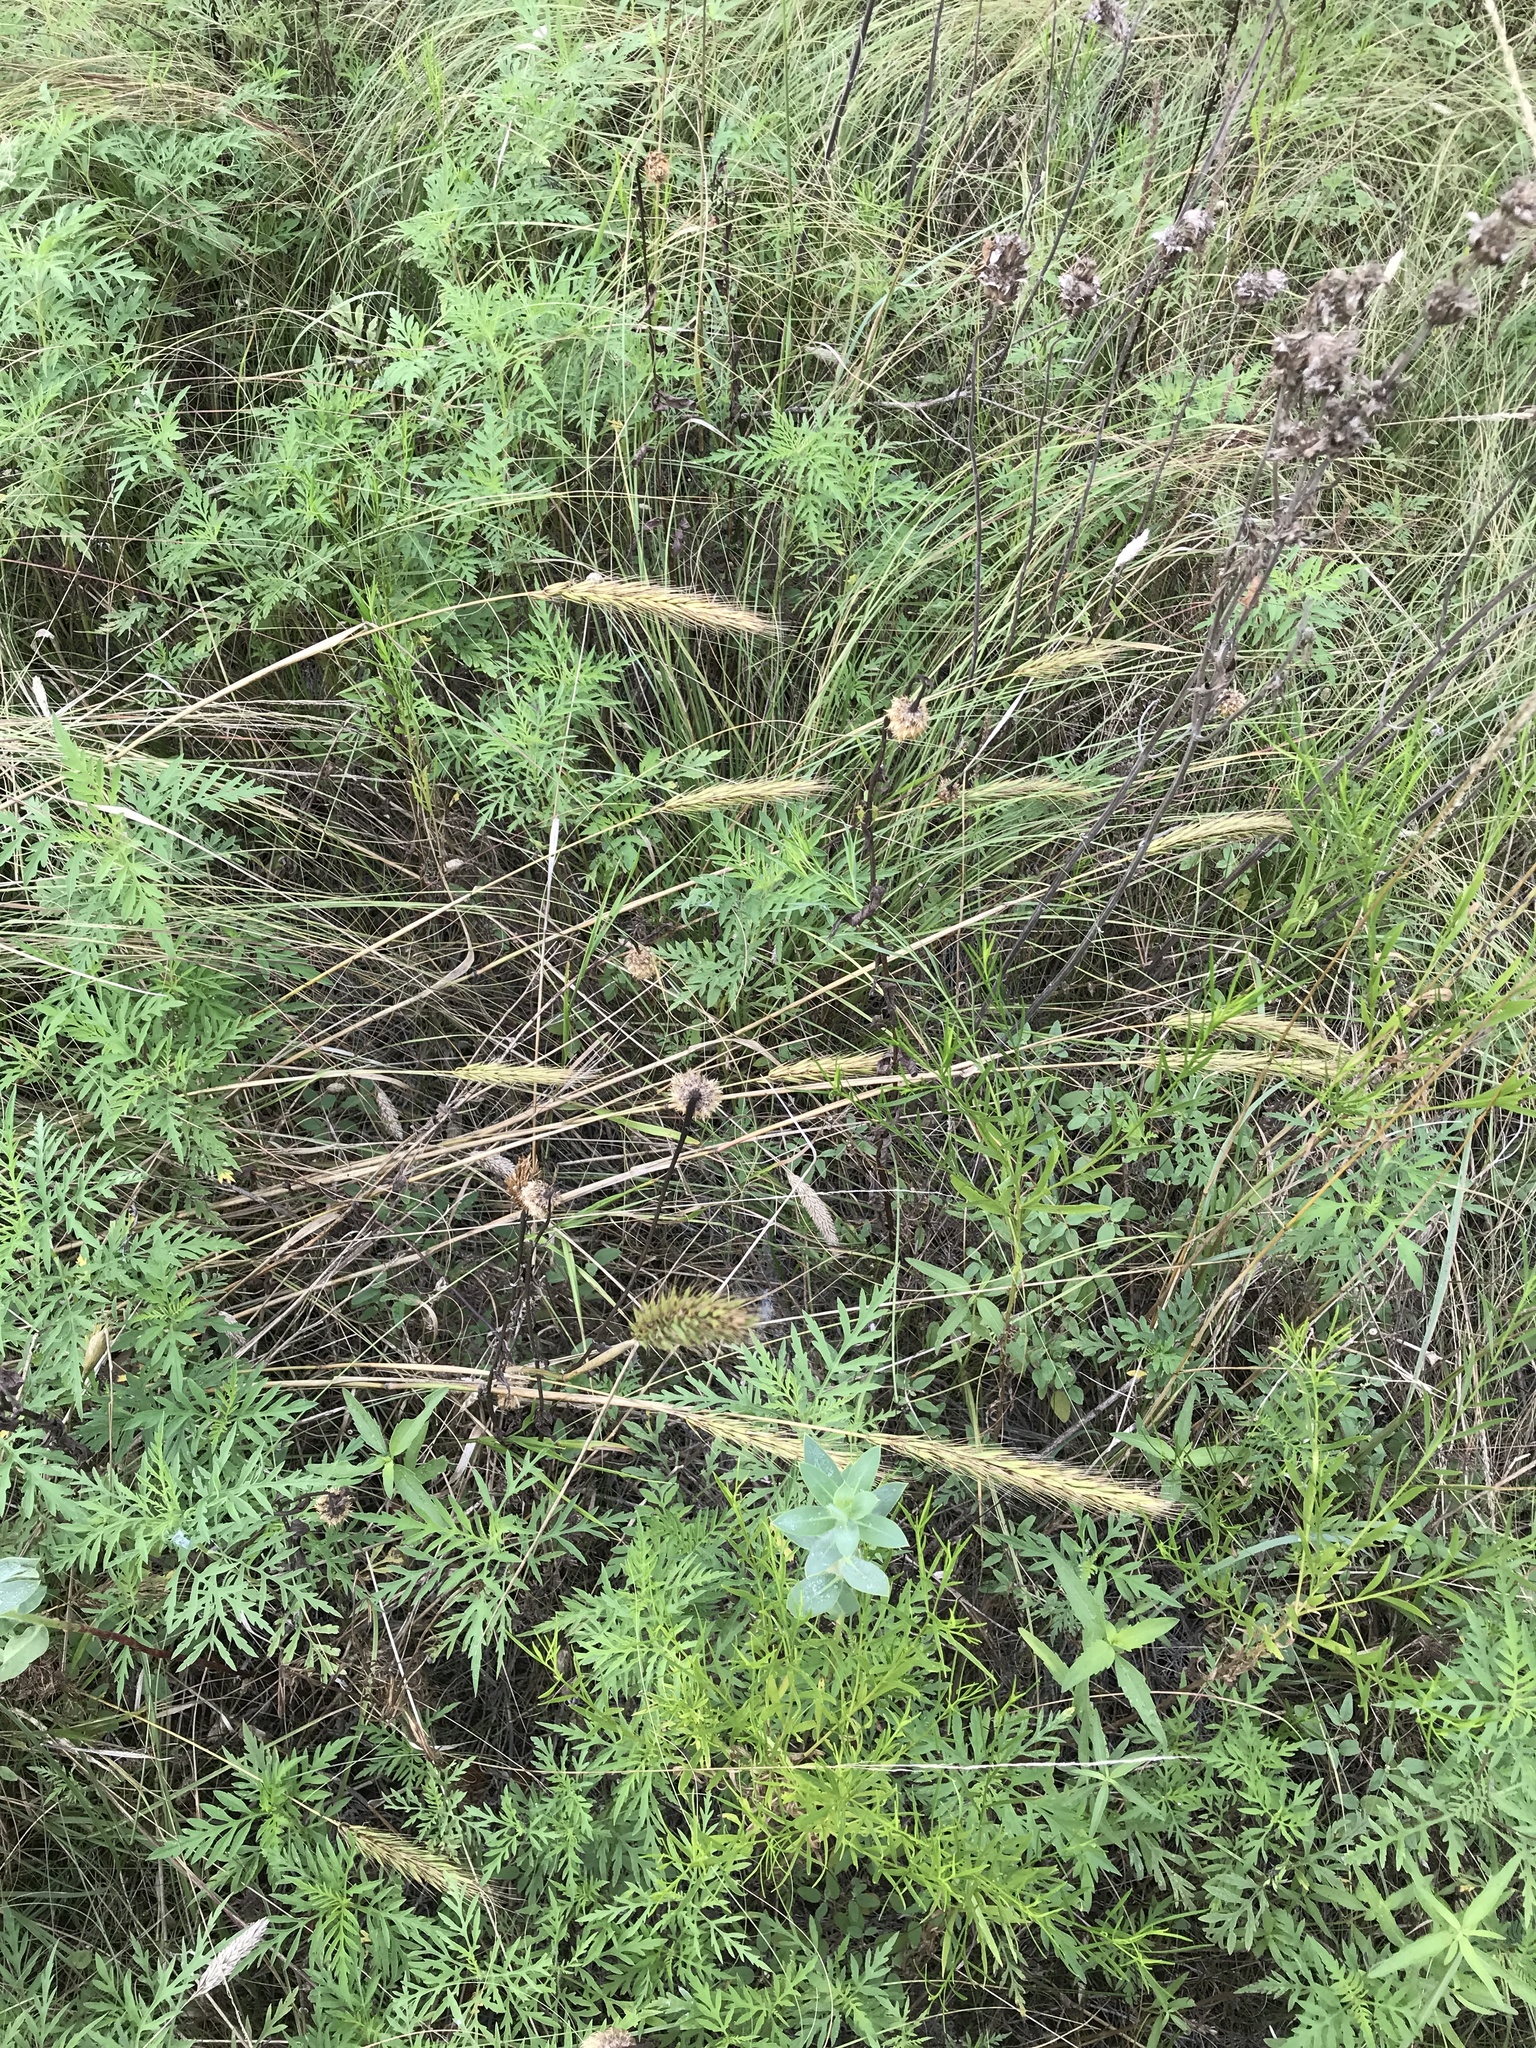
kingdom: Plantae
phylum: Tracheophyta
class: Liliopsida
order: Poales
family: Poaceae
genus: Elymus
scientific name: Elymus virginicus
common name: Common eastern wildrye
